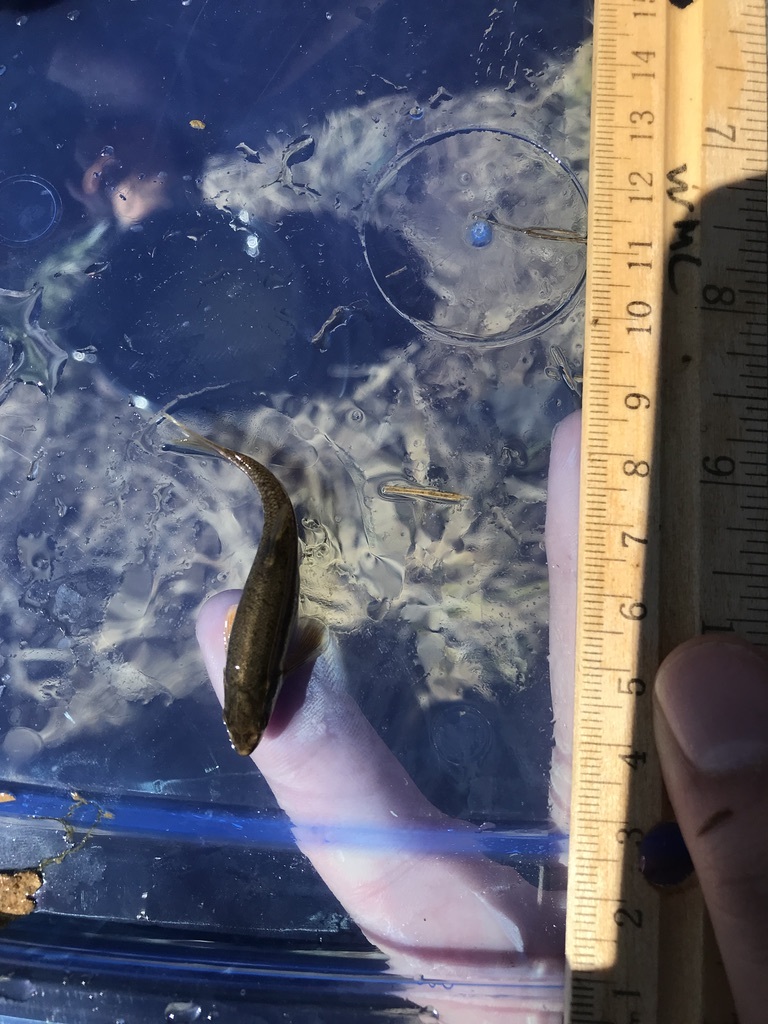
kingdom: Animalia
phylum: Chordata
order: Cypriniformes
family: Cyprinidae
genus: Rhinichthys
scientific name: Rhinichthys atratulus
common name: Eastern blacknose dace
